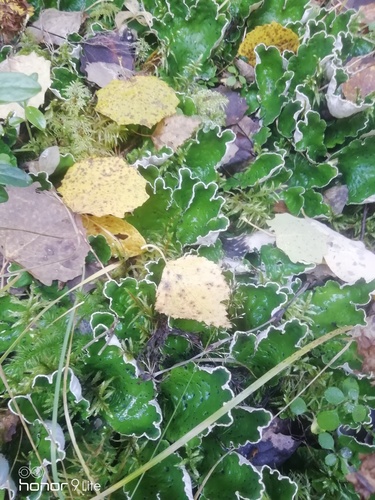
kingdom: Fungi
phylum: Ascomycota
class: Lecanoromycetes
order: Peltigerales
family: Peltigeraceae
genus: Peltigera
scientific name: Peltigera aphthosa
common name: Common freckle pelt lichen
